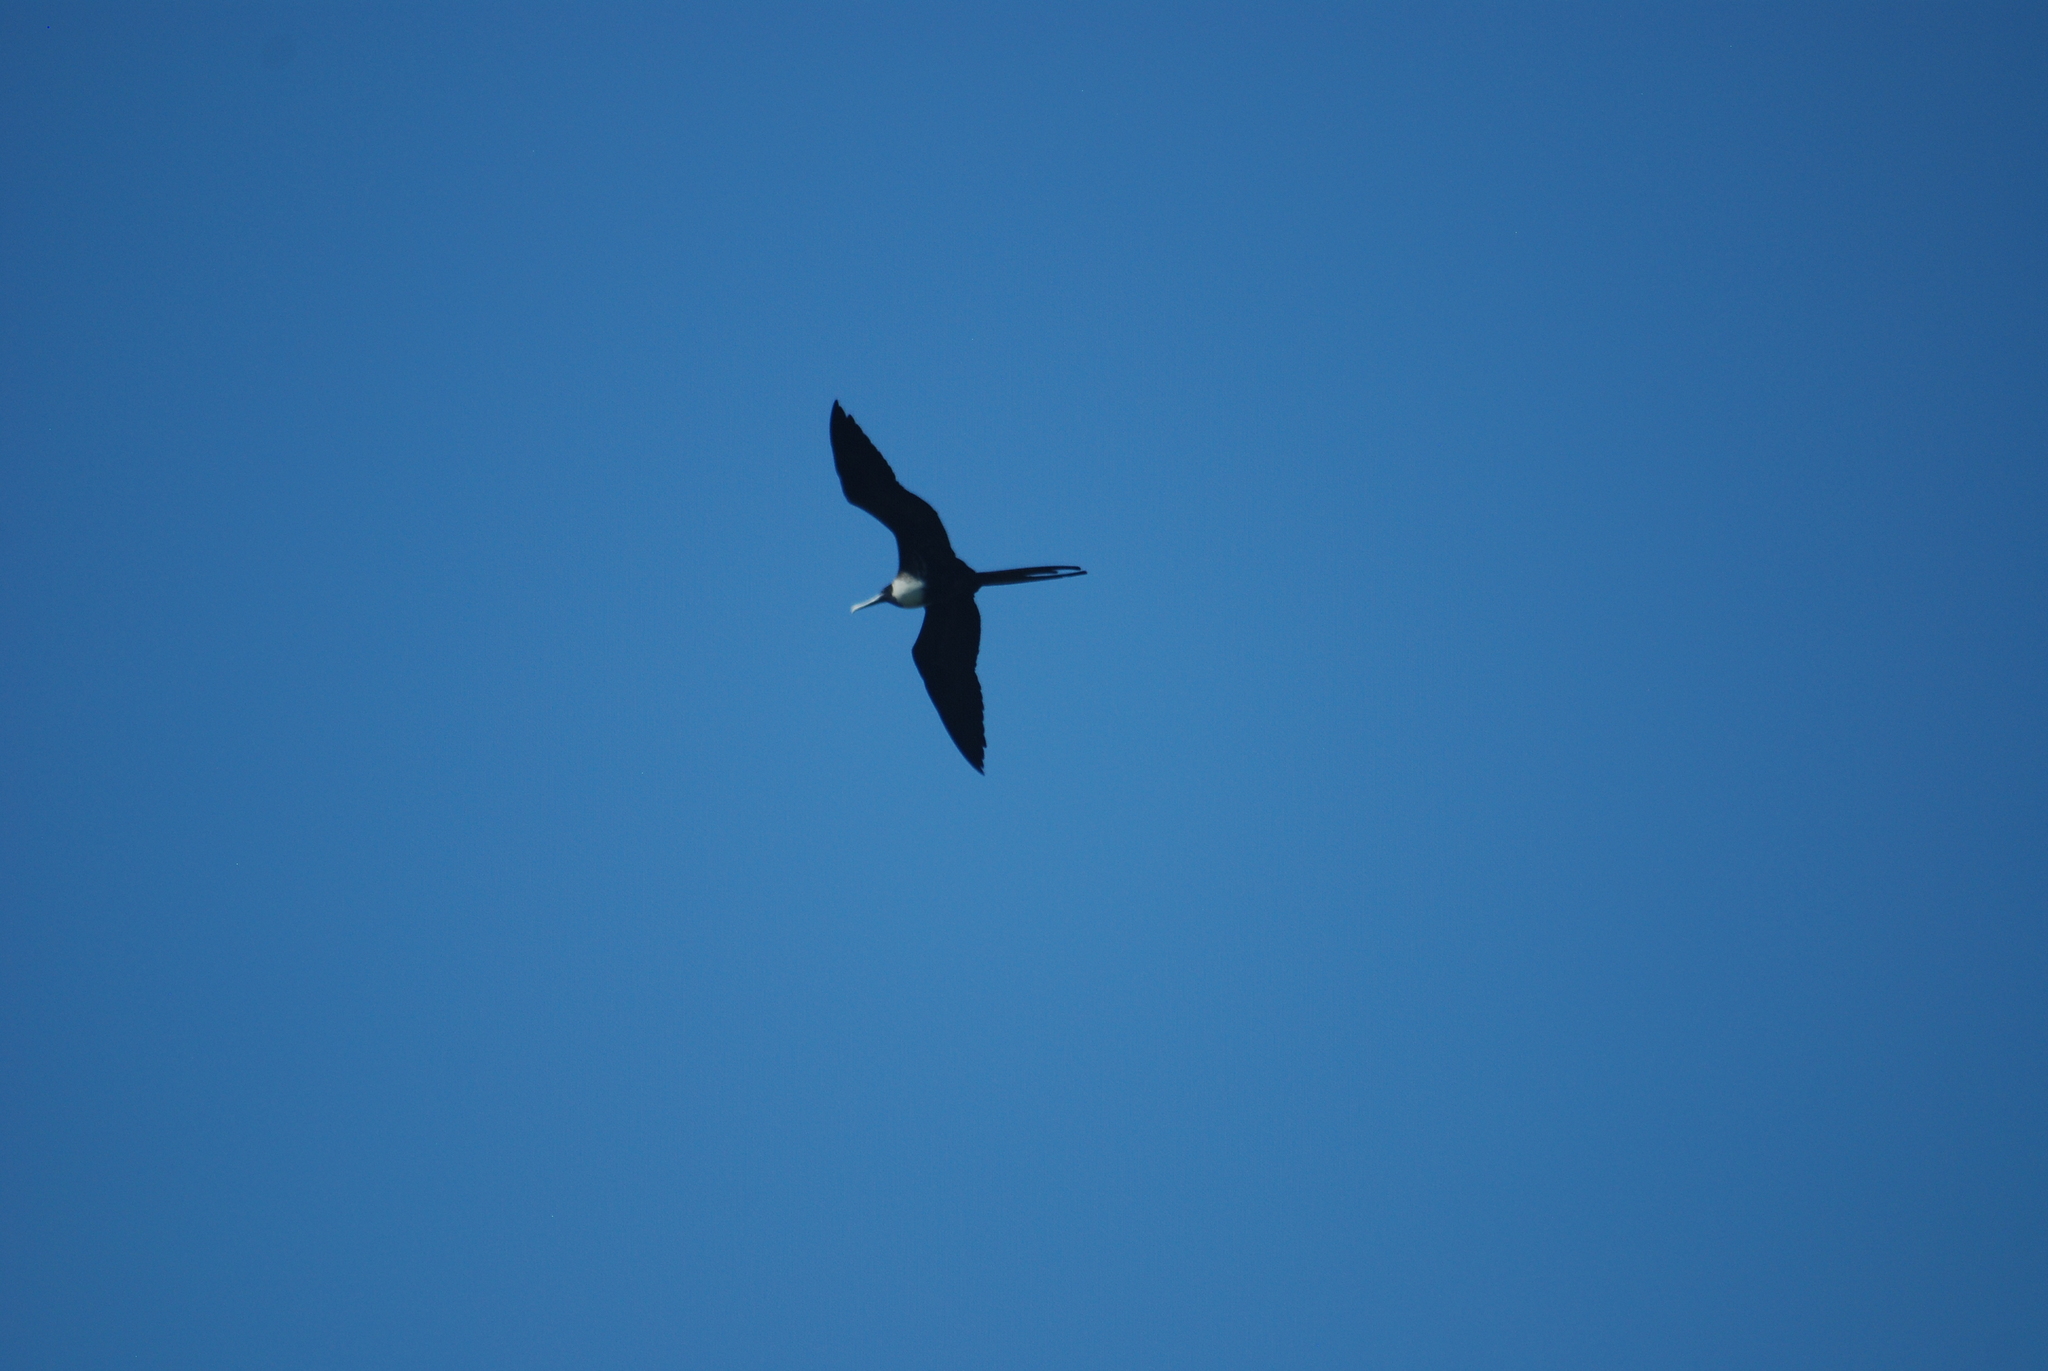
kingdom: Animalia
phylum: Chordata
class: Aves
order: Suliformes
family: Fregatidae
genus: Fregata
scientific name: Fregata magnificens
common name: Magnificent frigatebird
